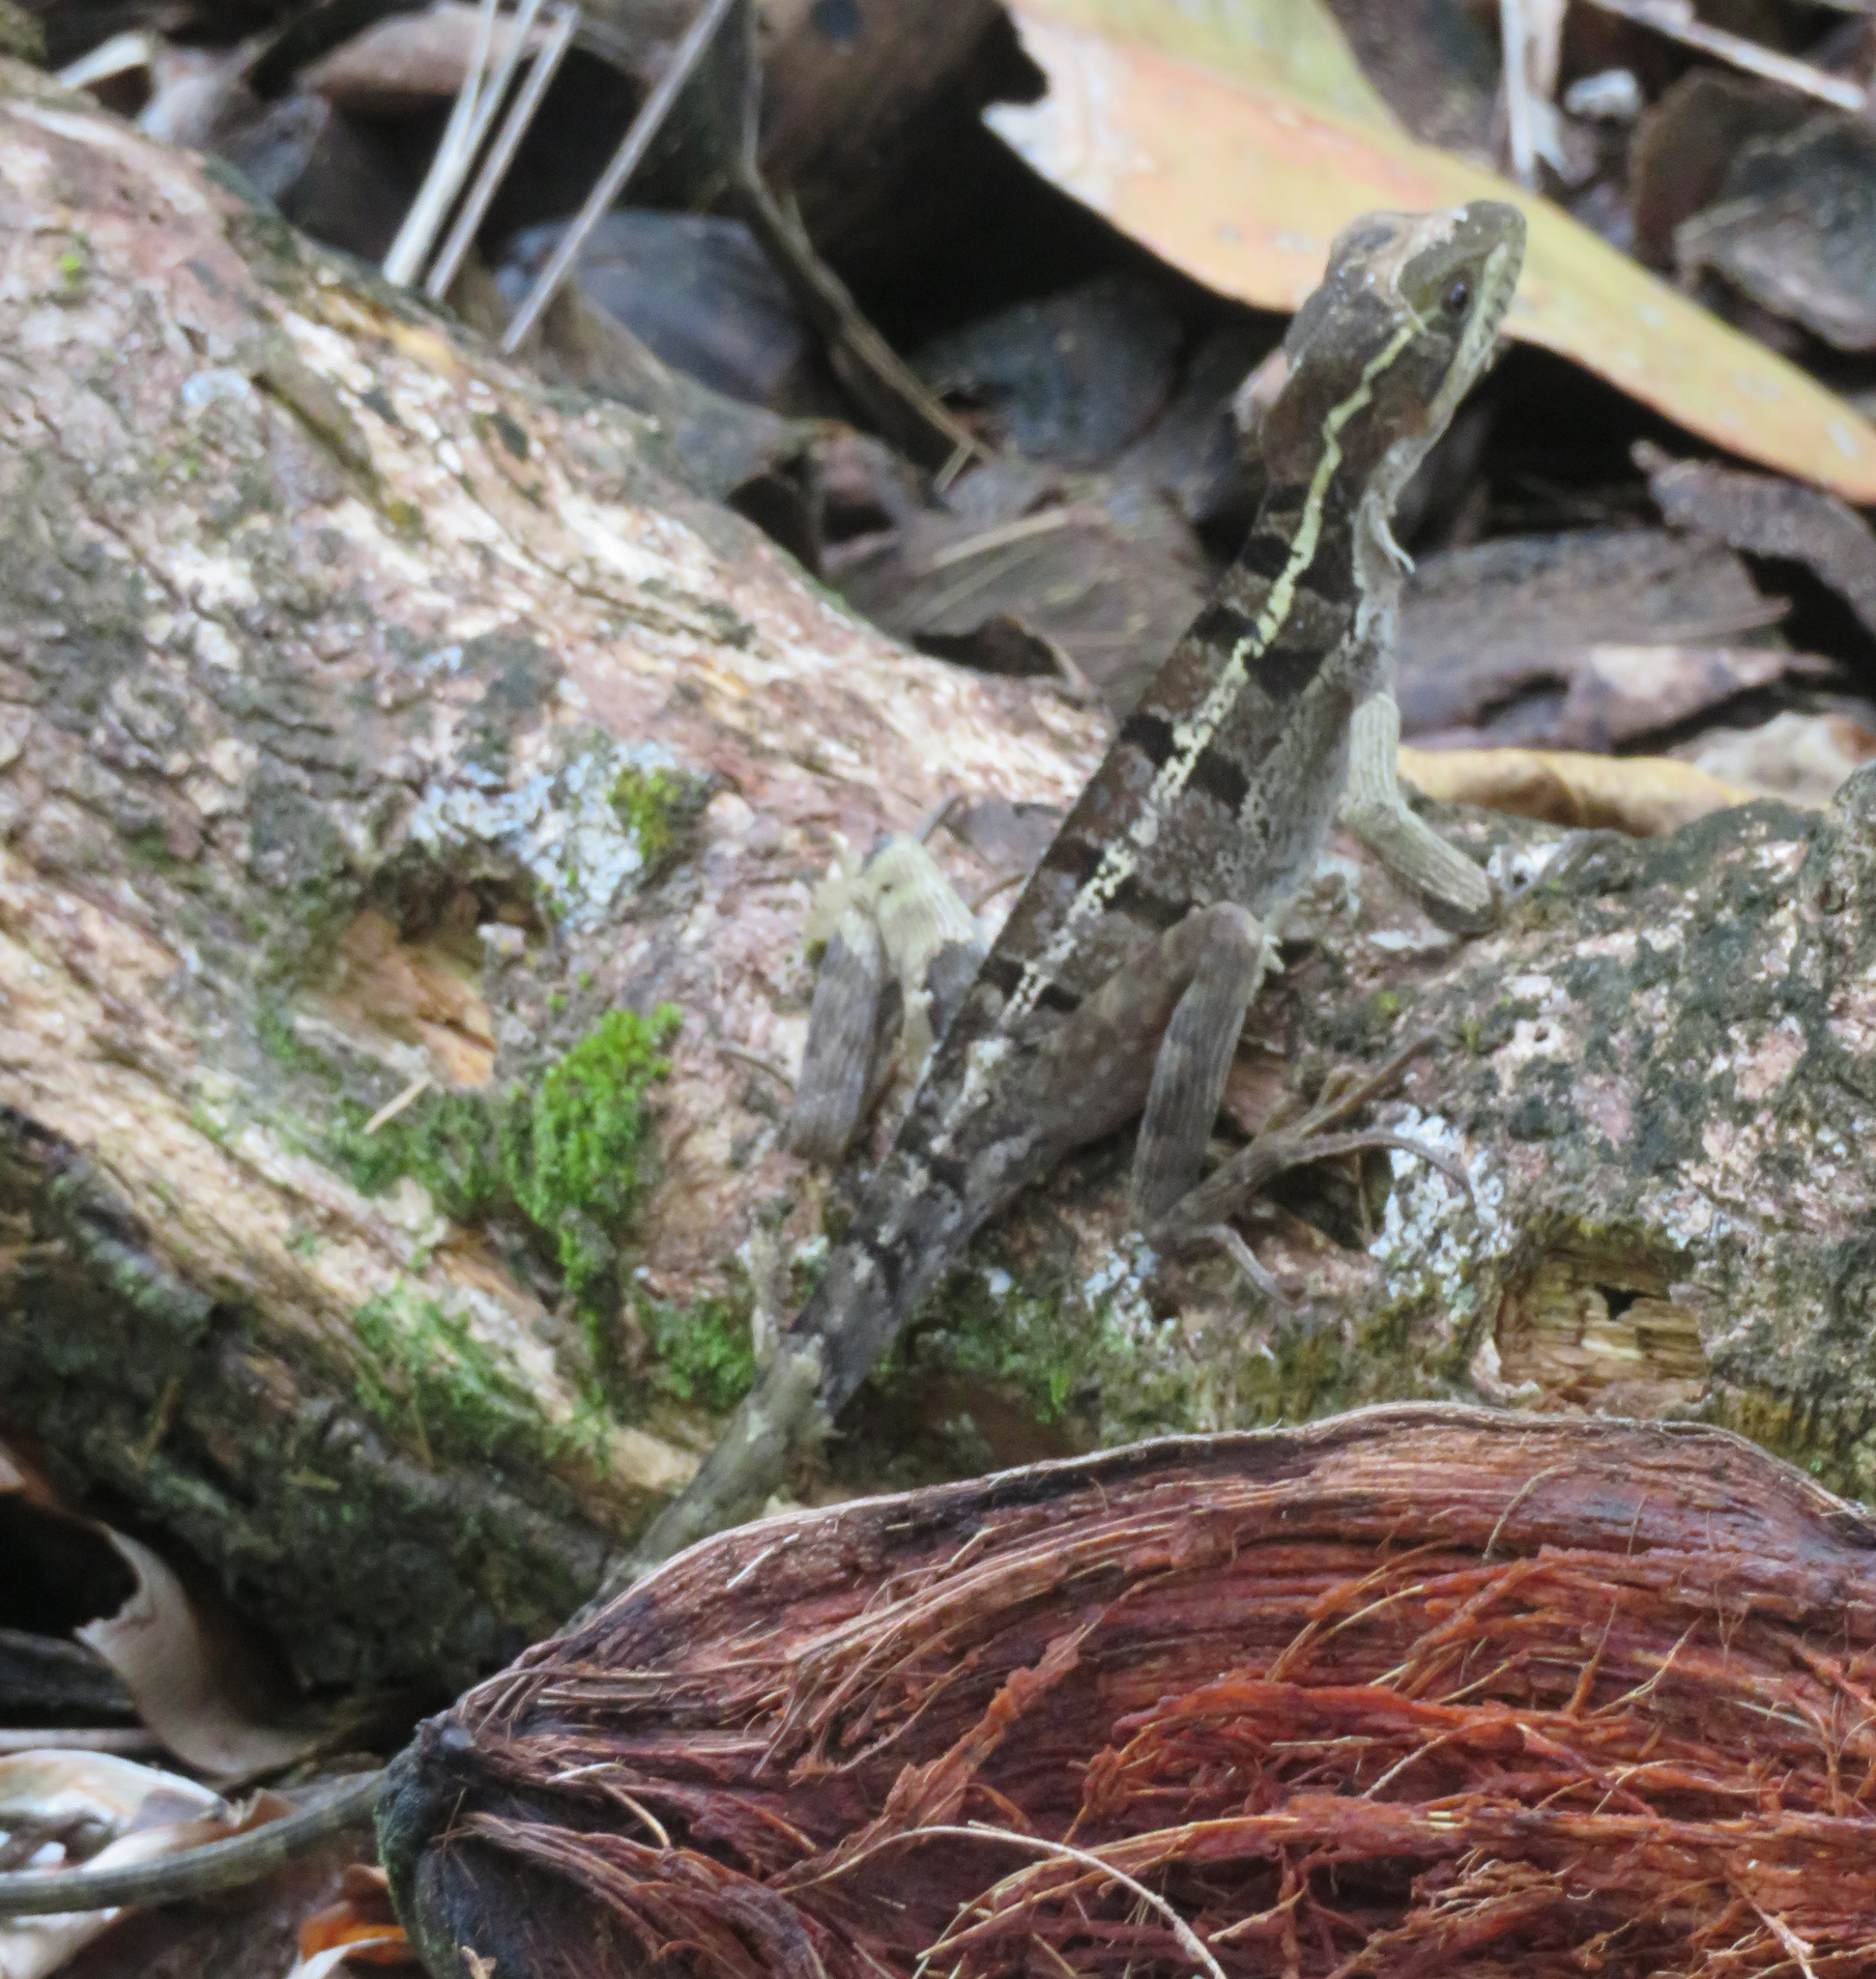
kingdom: Animalia
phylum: Chordata
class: Squamata
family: Corytophanidae
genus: Basiliscus
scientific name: Basiliscus basiliscus
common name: Common basilisk
